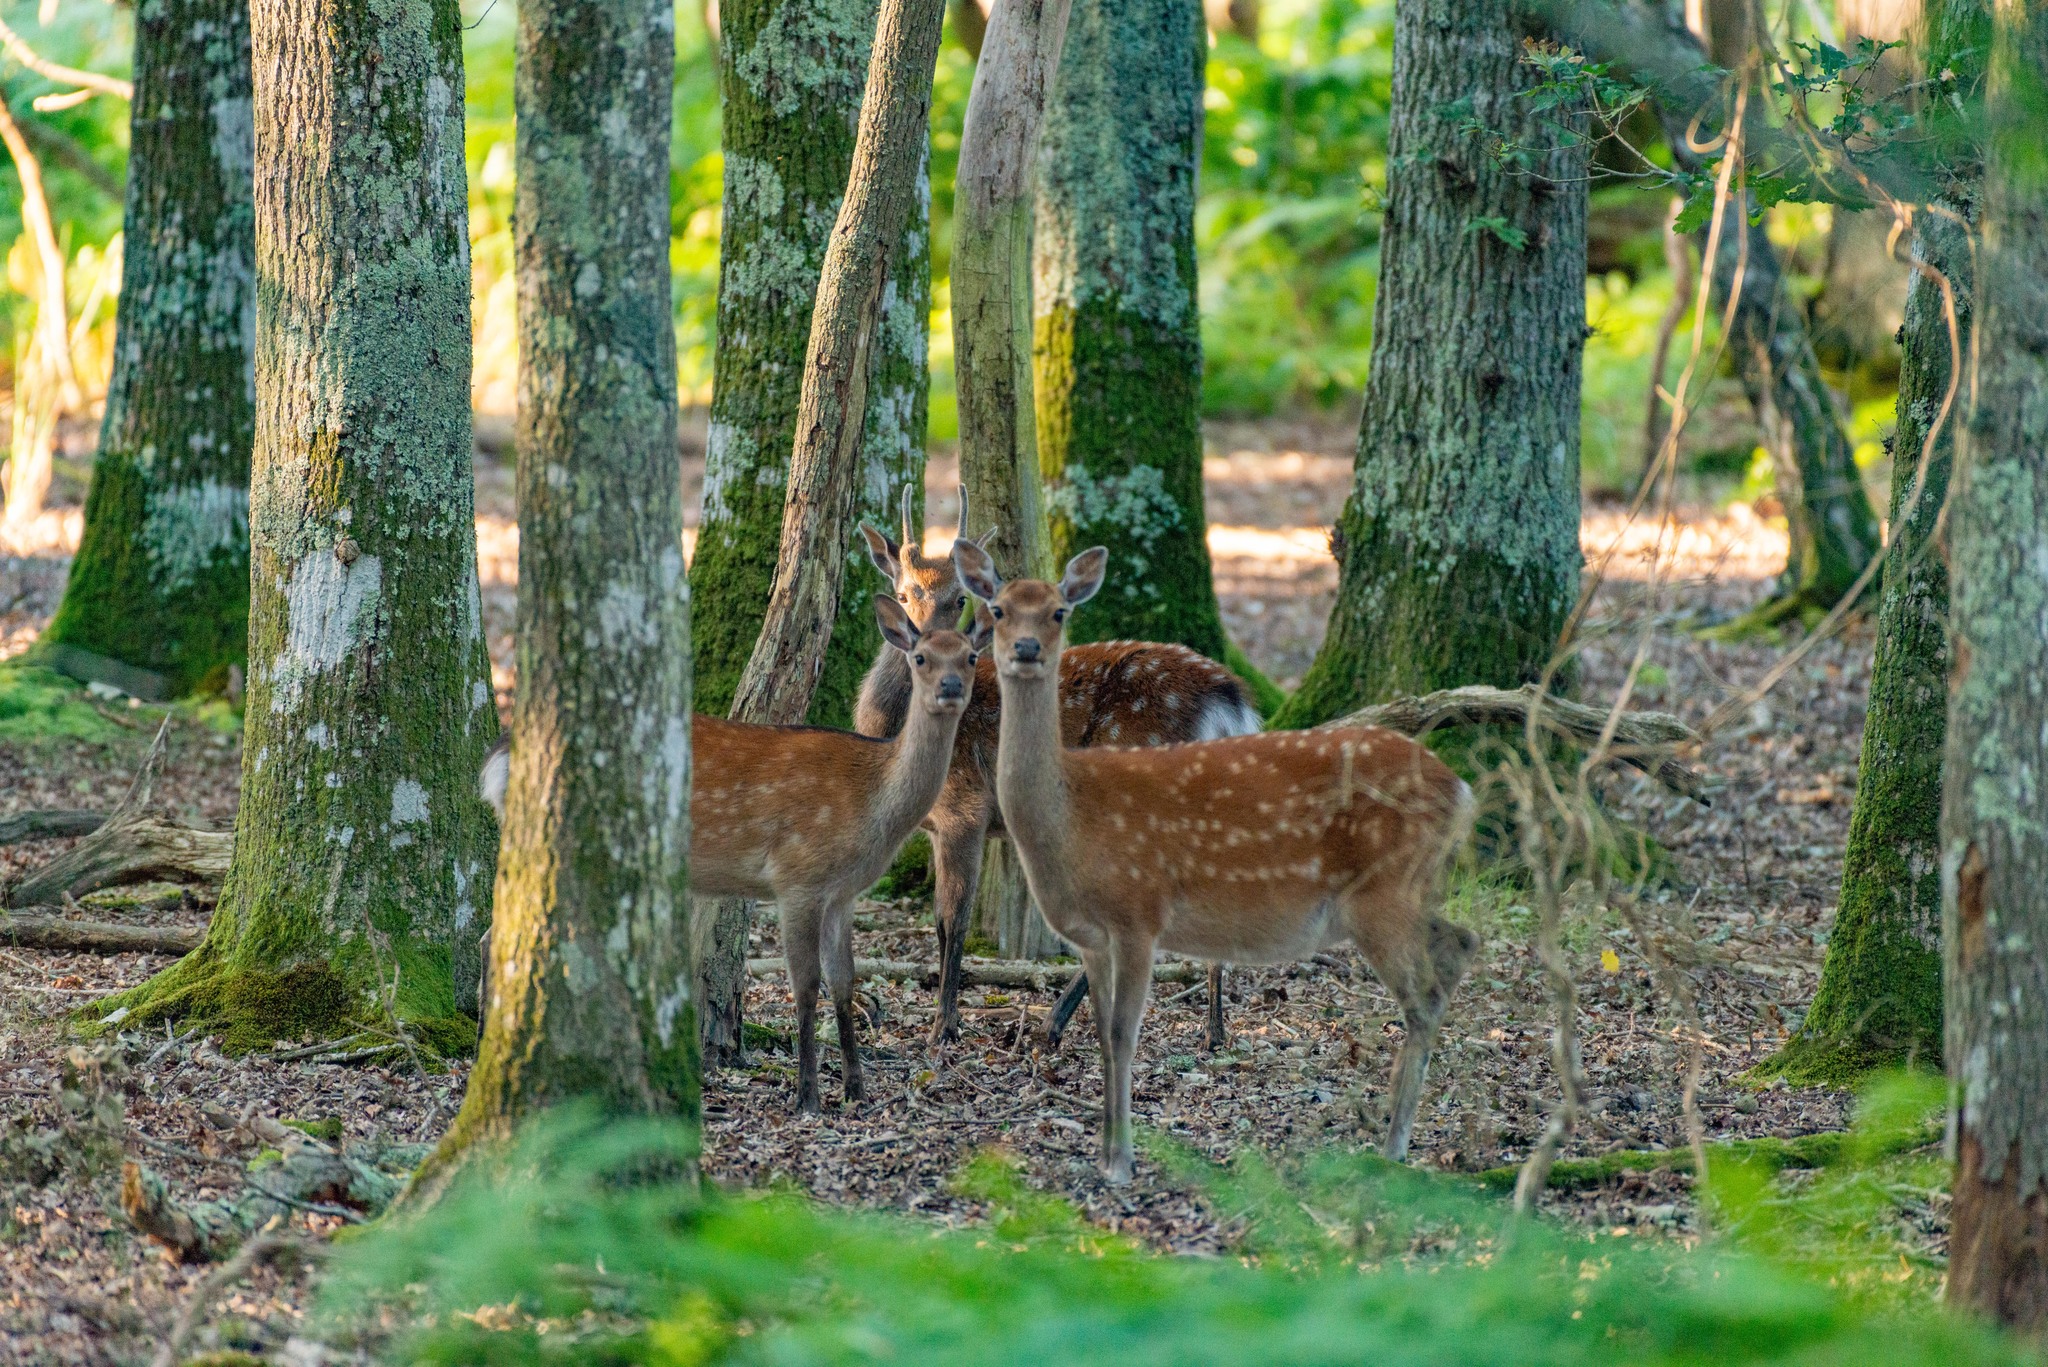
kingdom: Animalia
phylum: Chordata
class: Mammalia
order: Artiodactyla
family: Cervidae
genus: Cervus
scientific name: Cervus nippon
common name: Sika deer
